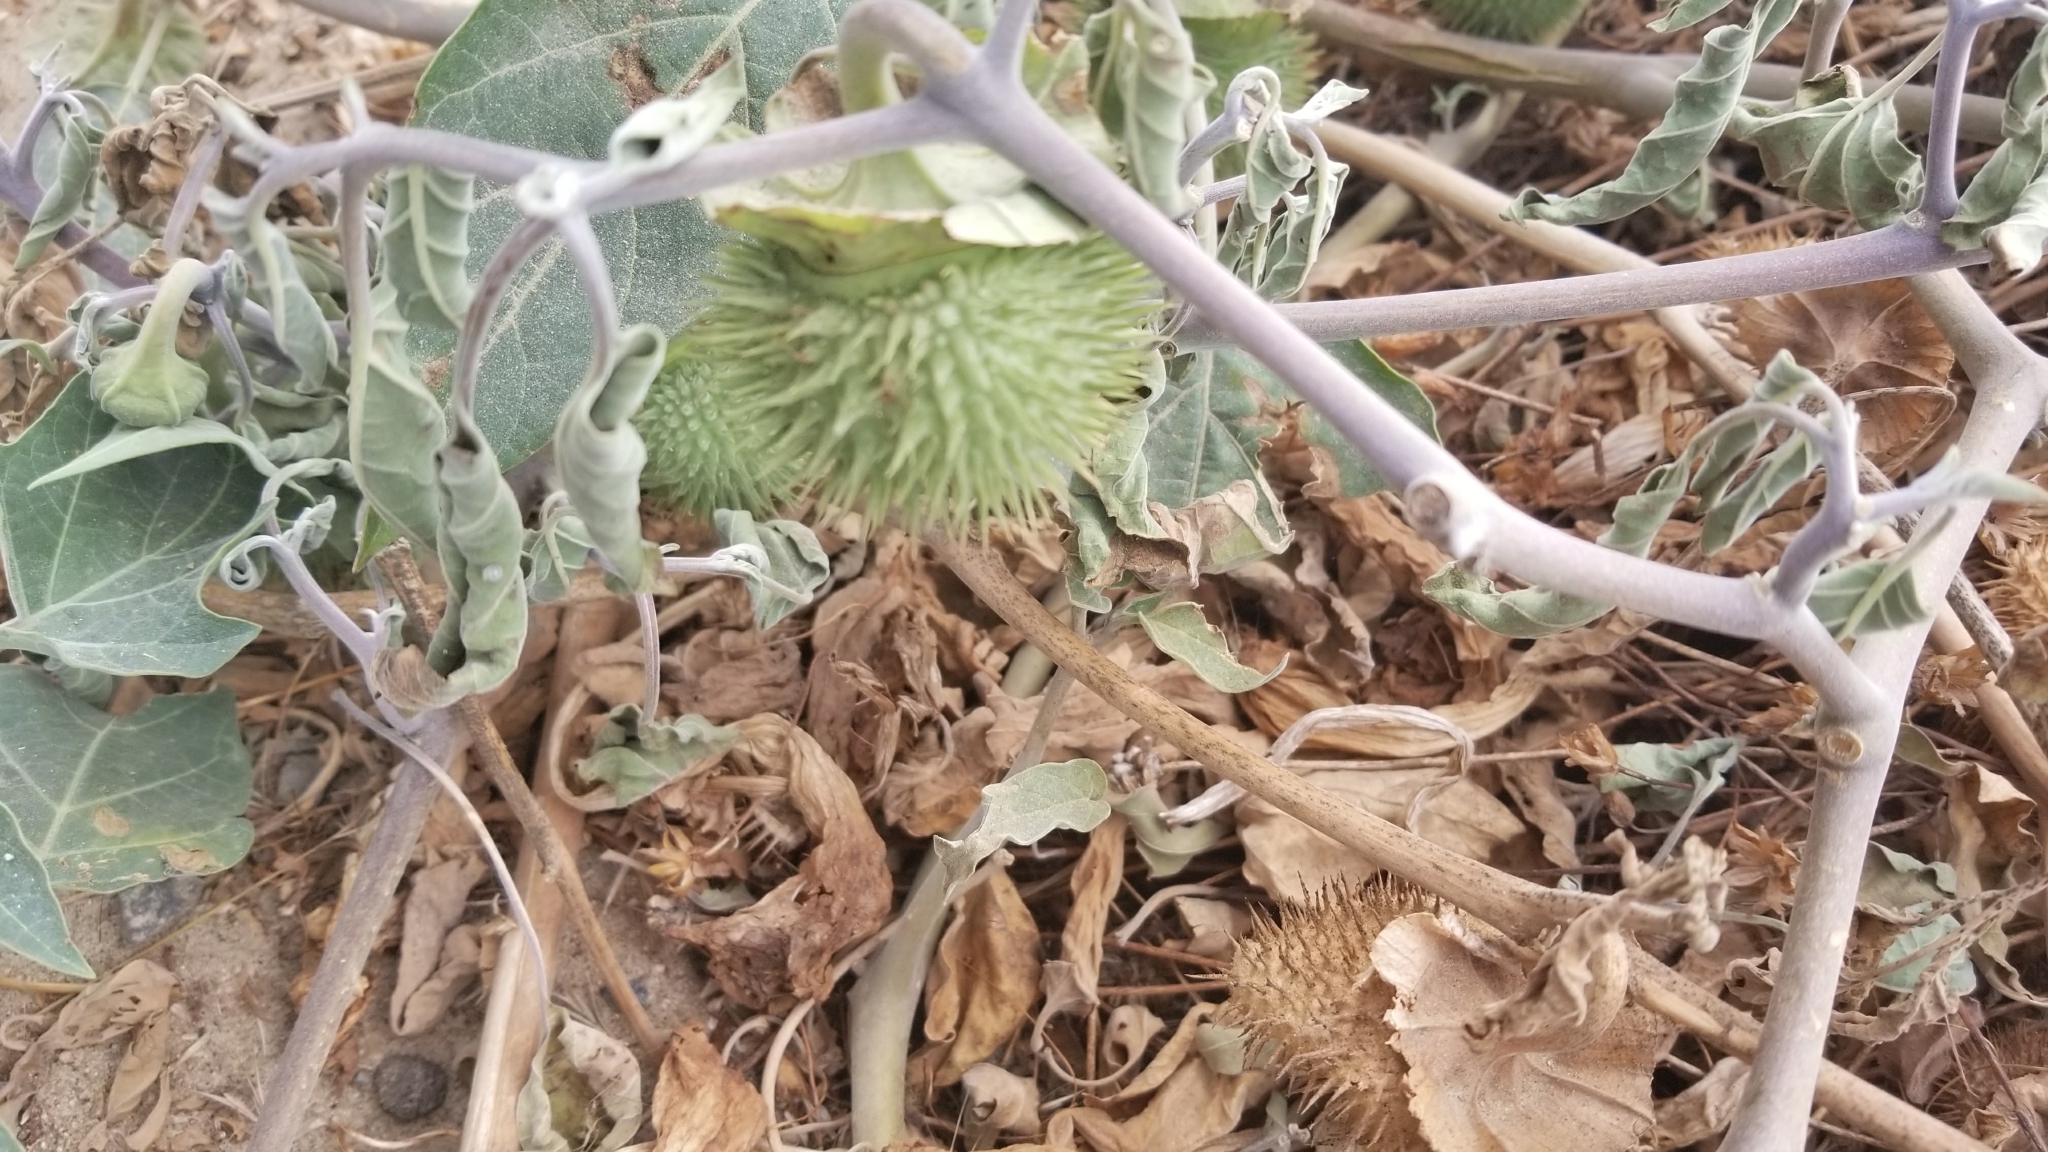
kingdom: Plantae
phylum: Tracheophyta
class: Magnoliopsida
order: Solanales
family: Solanaceae
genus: Datura
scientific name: Datura wrightii
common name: Sacred thorn-apple
